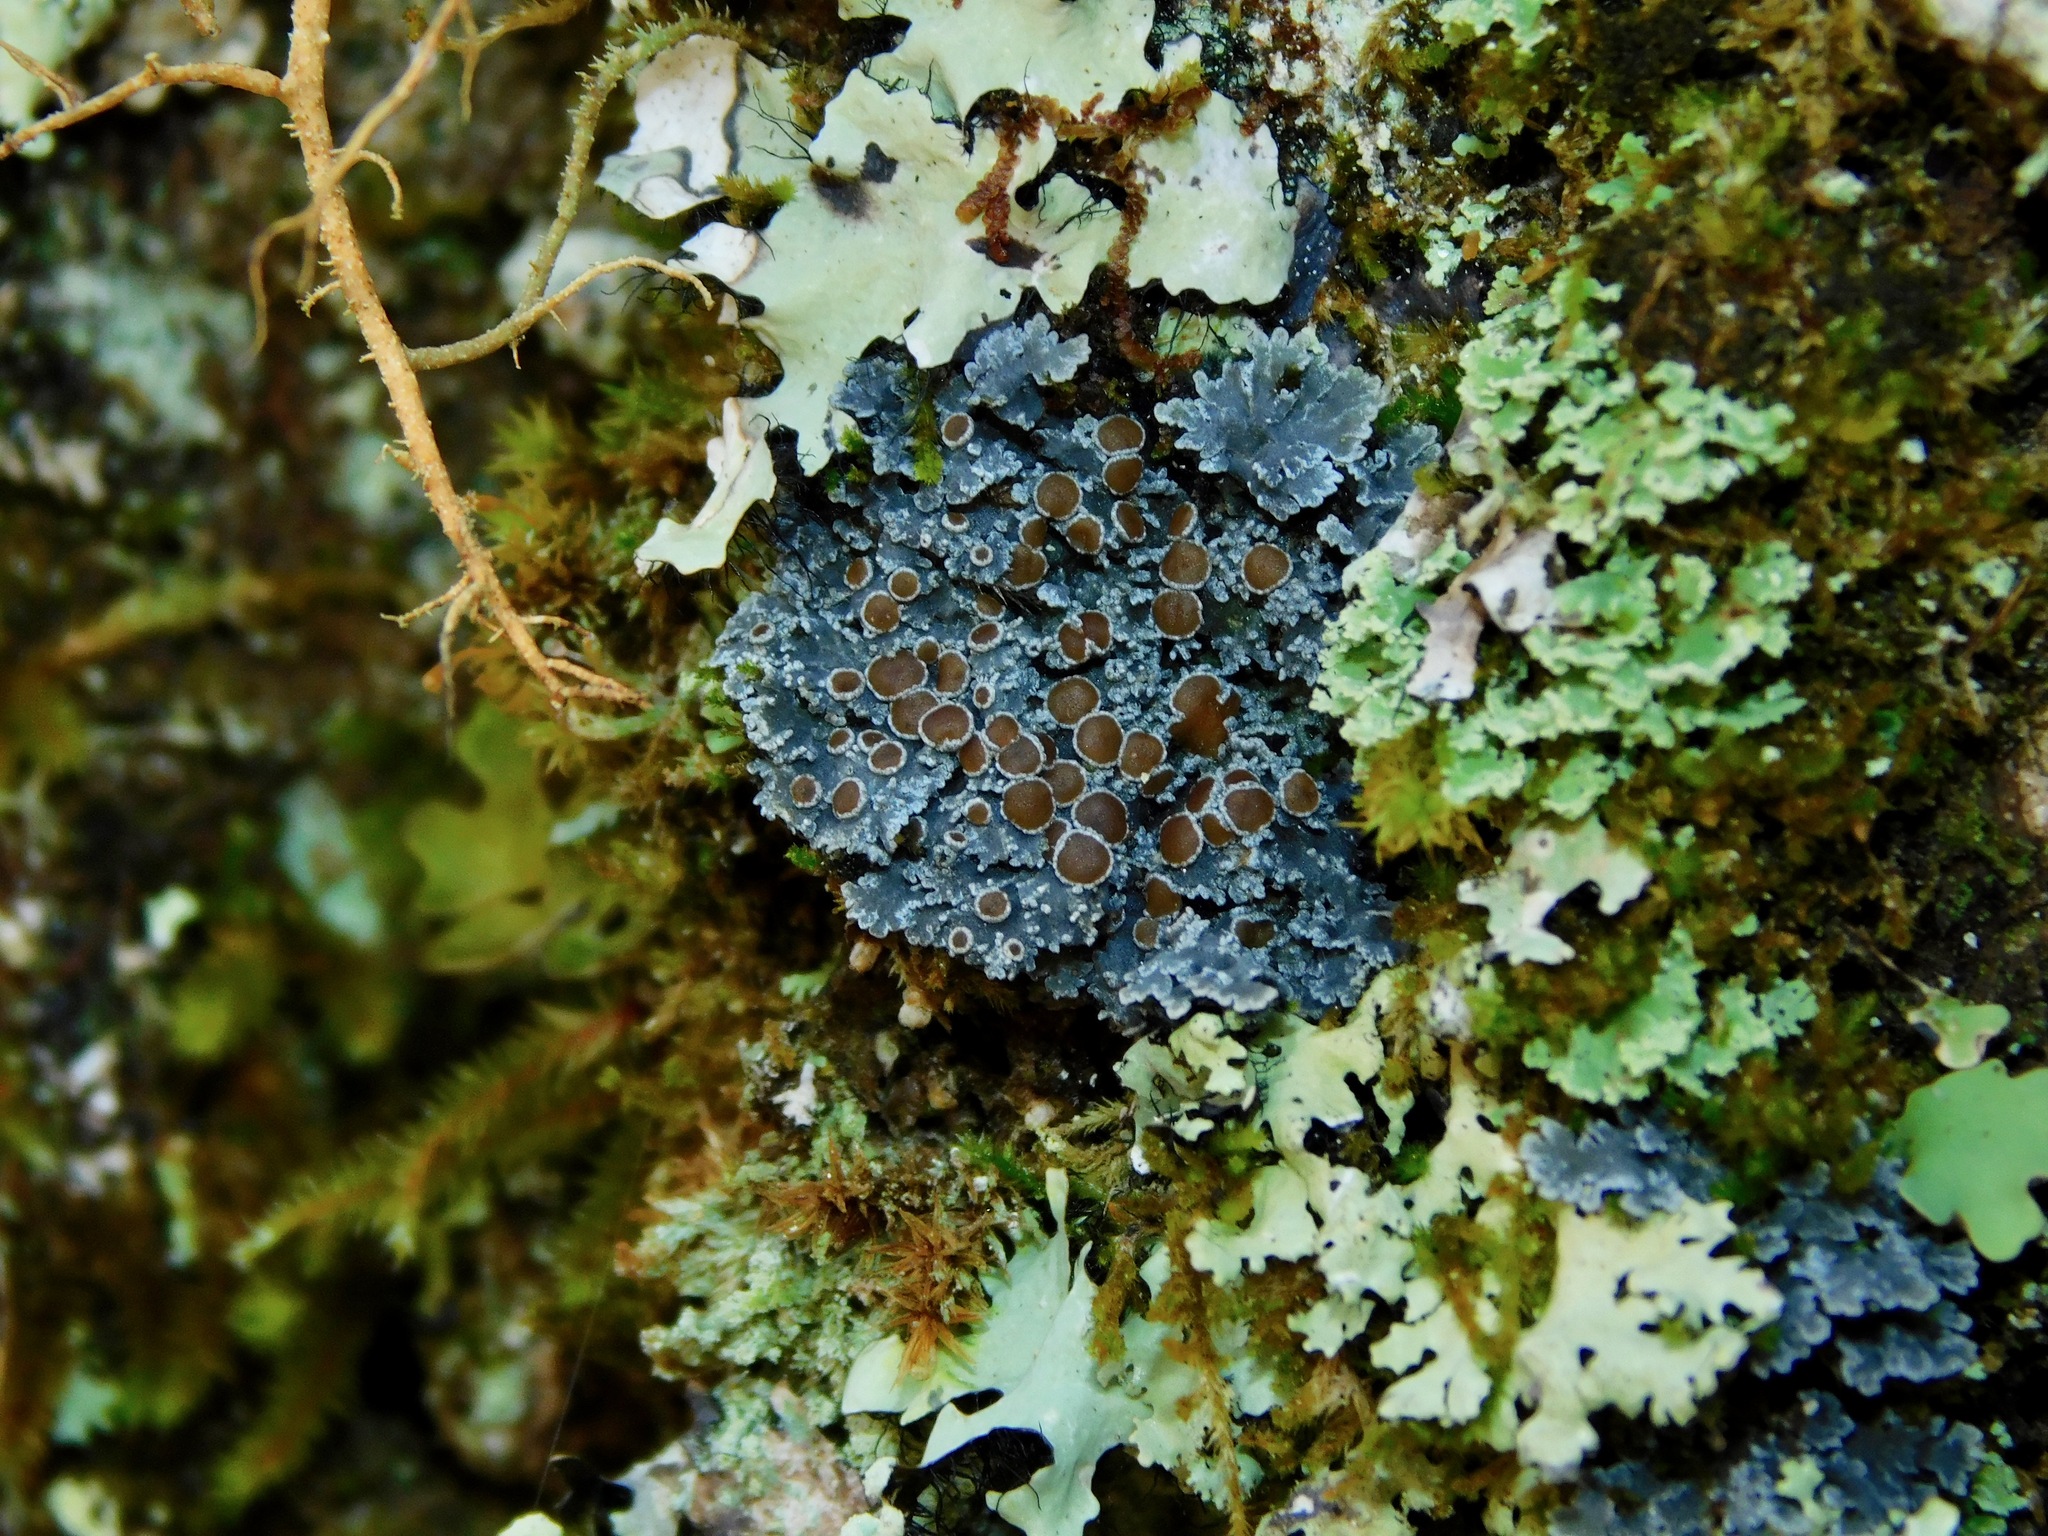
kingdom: Fungi
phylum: Ascomycota
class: Lecanoromycetes
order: Peltigerales
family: Pannariaceae
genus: Protopannaria
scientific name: Protopannaria pezizoides
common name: Brown-gray m oss-shingle
